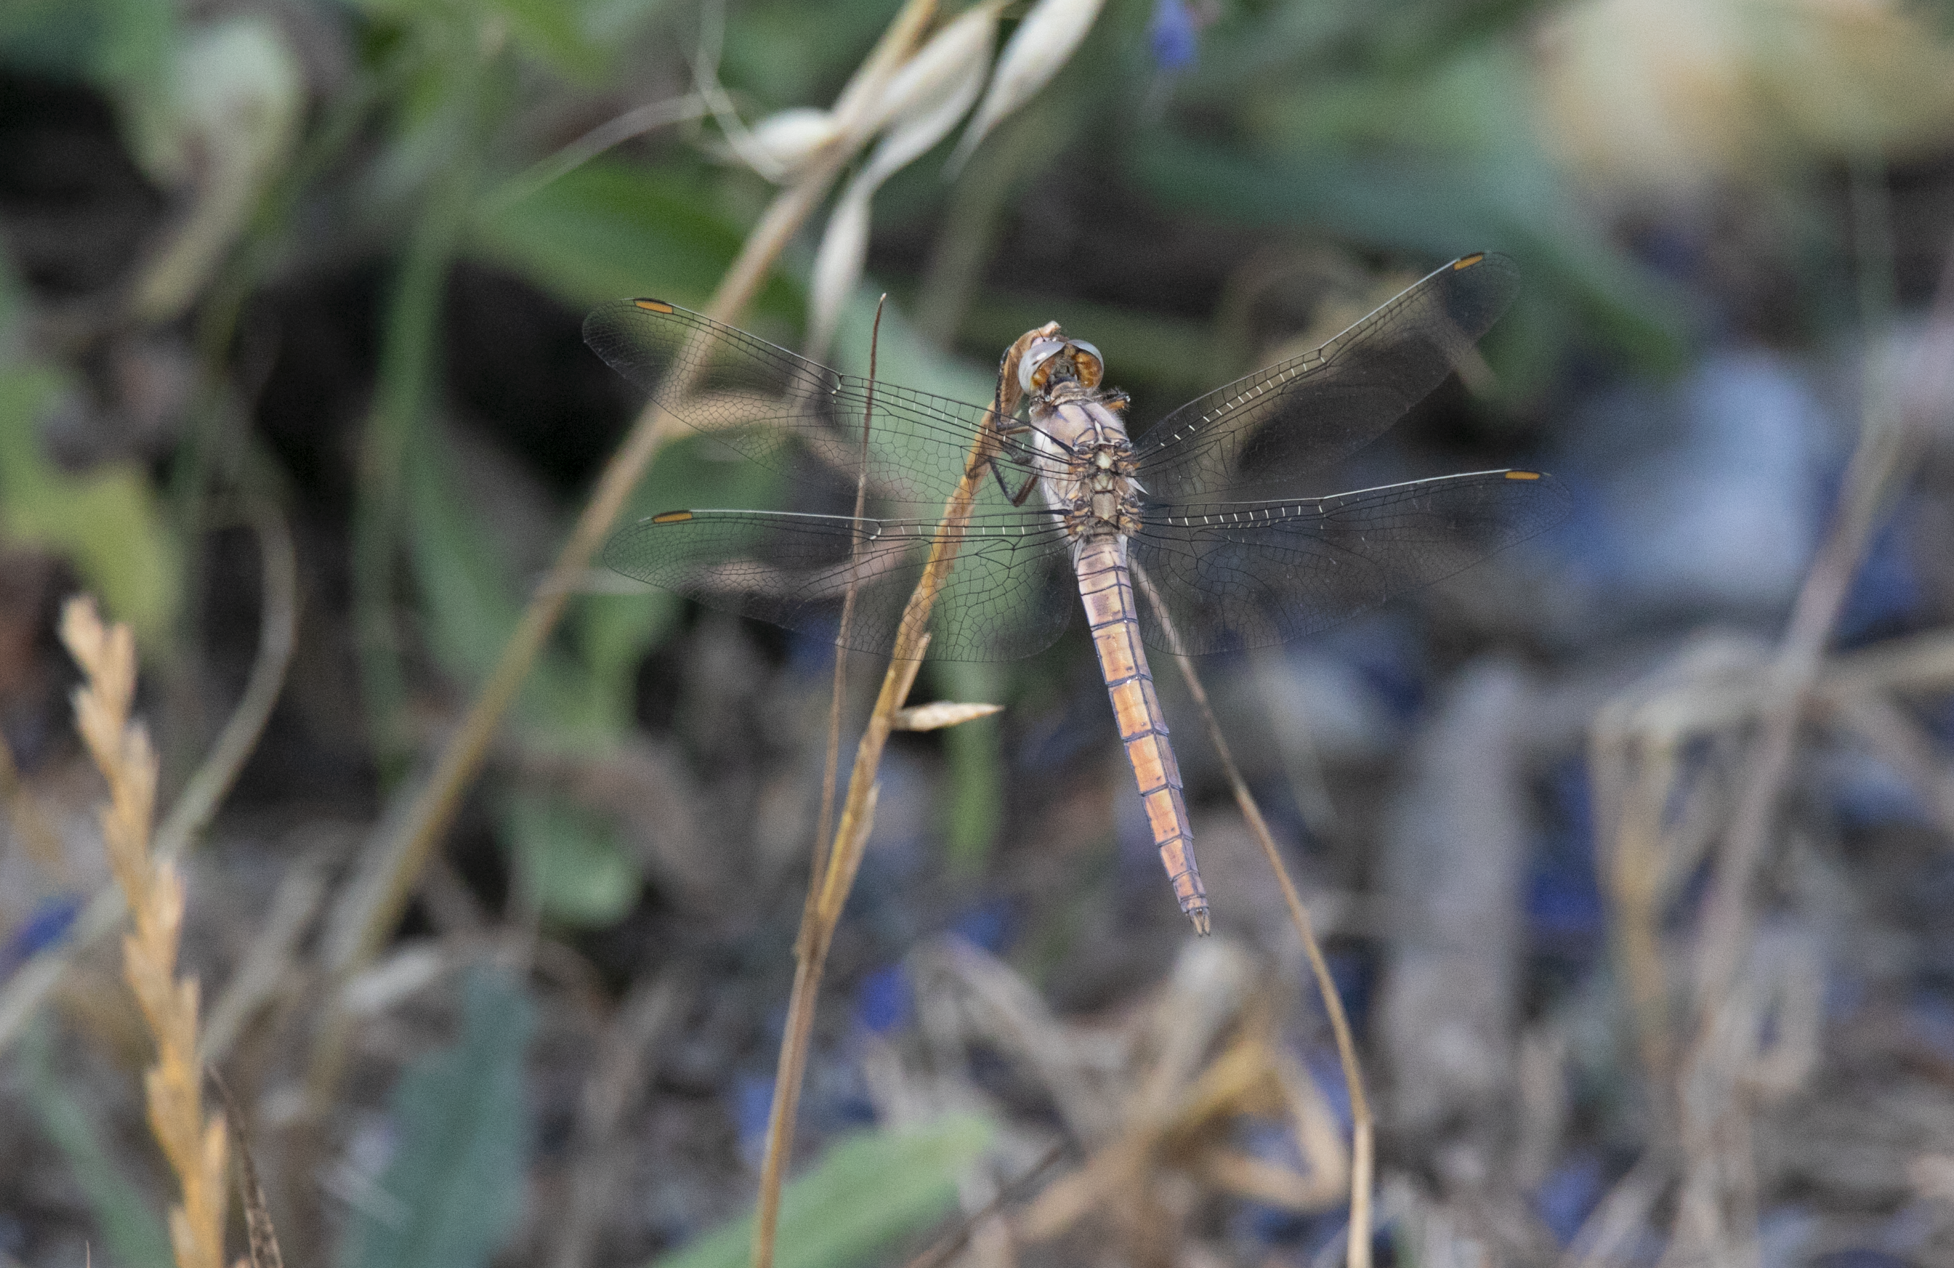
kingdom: Animalia
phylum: Arthropoda
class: Insecta
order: Odonata
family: Libellulidae
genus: Orthetrum
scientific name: Orthetrum brunneum
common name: Southern skimmer
